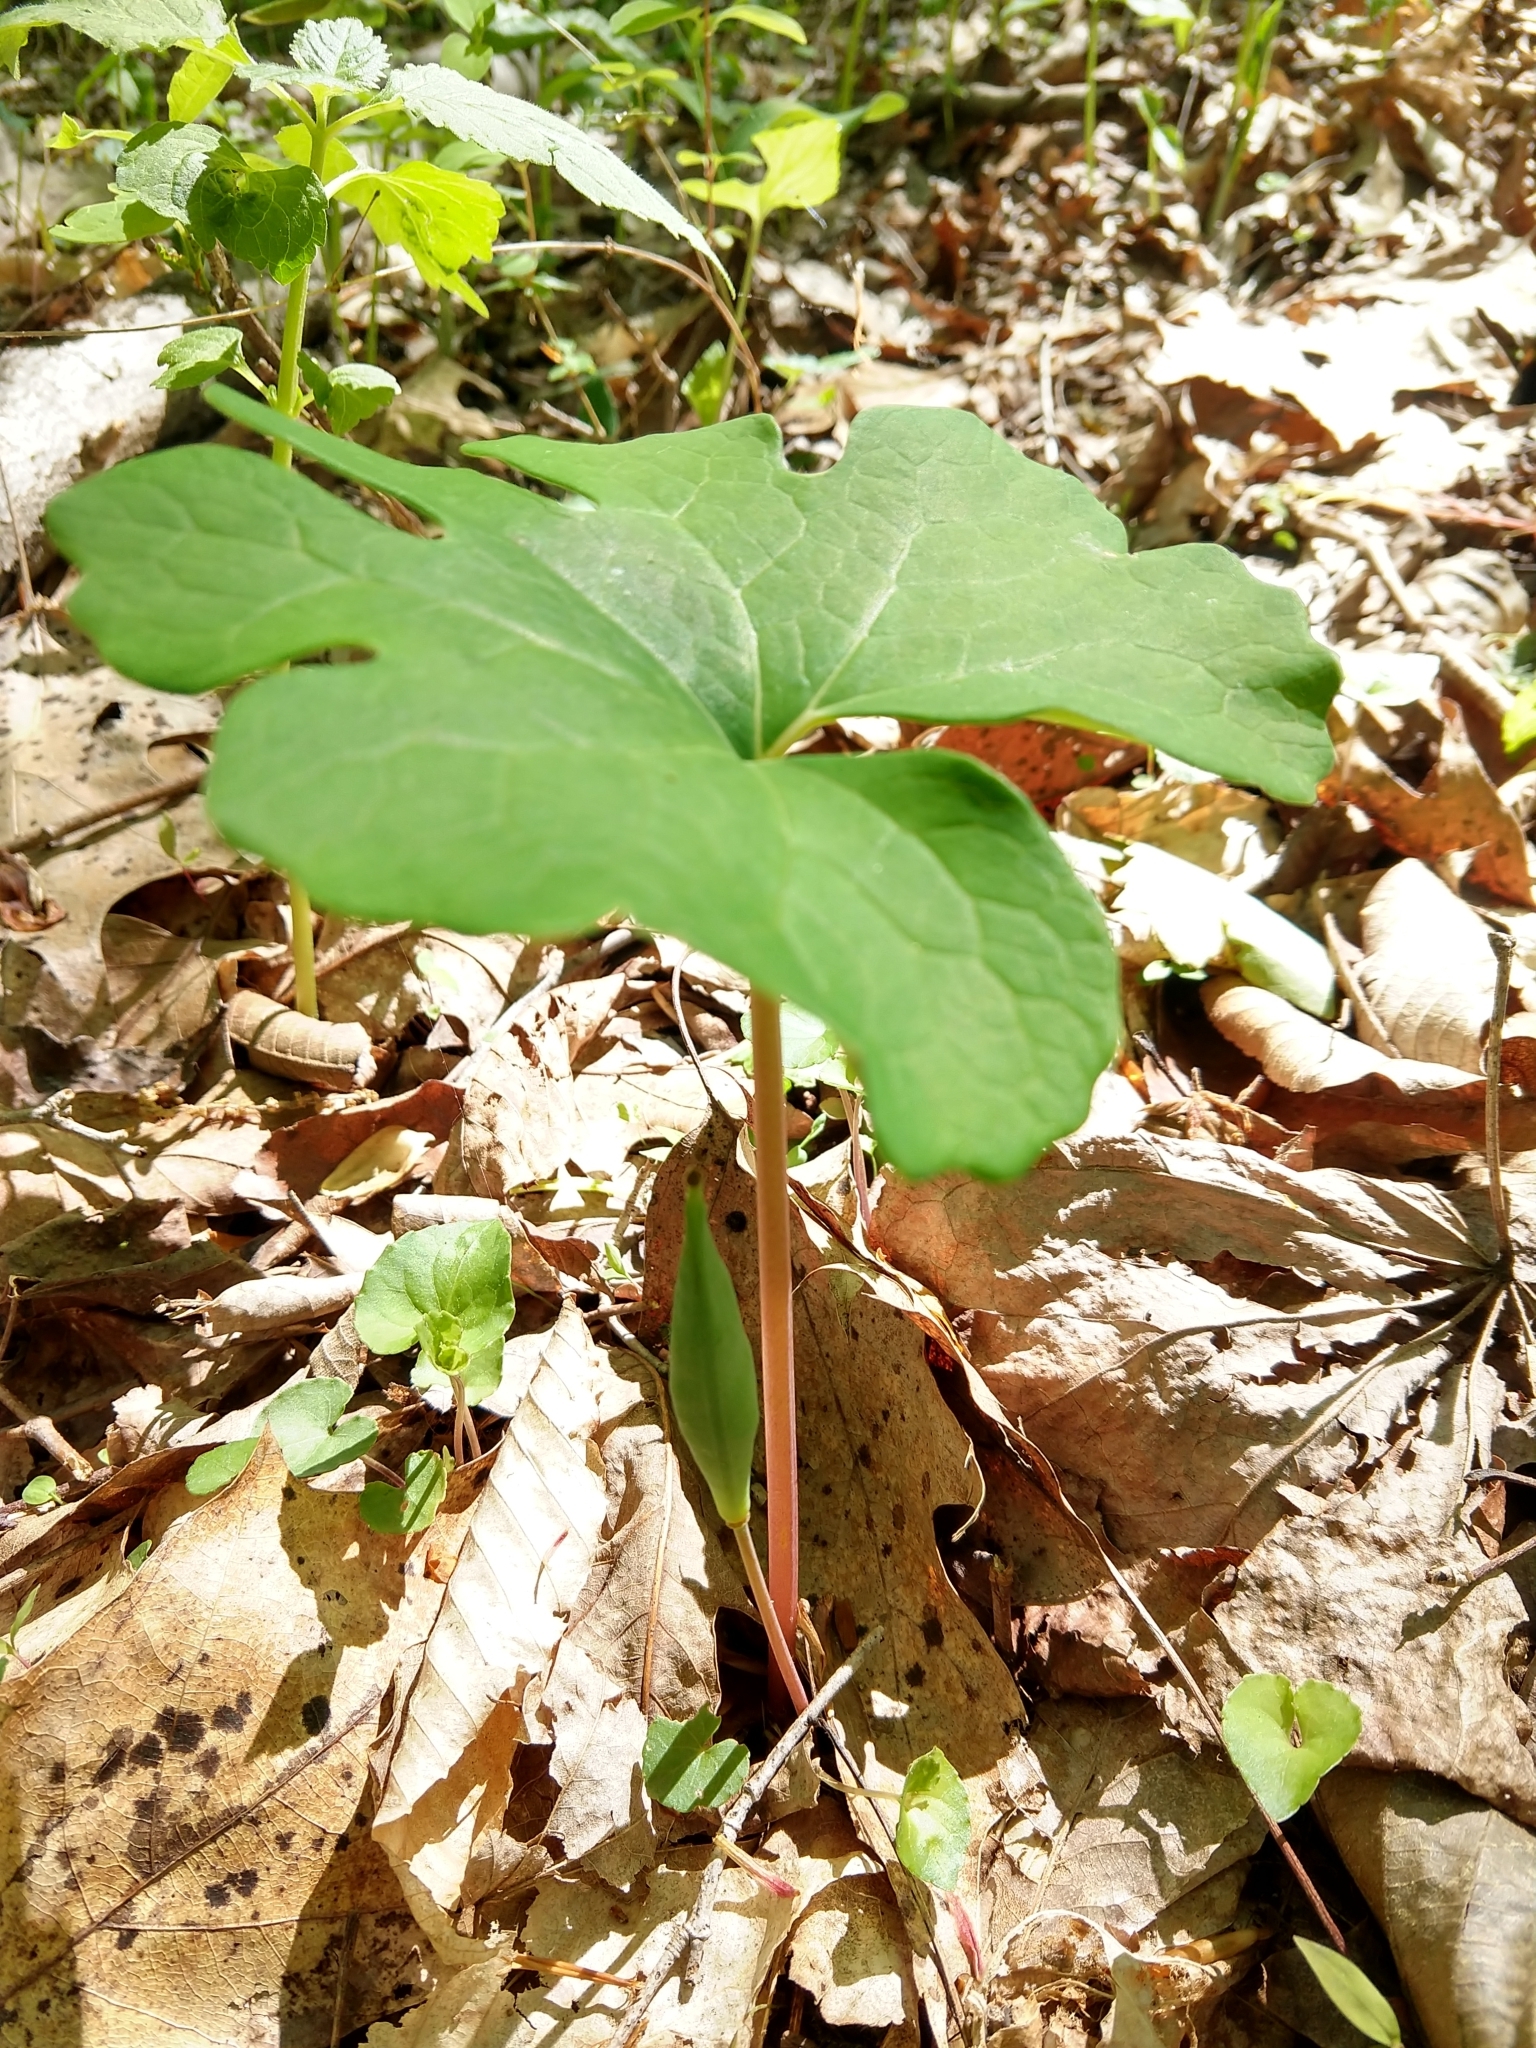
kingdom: Plantae
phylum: Tracheophyta
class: Magnoliopsida
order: Ranunculales
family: Papaveraceae
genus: Sanguinaria
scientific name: Sanguinaria canadensis
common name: Bloodroot
